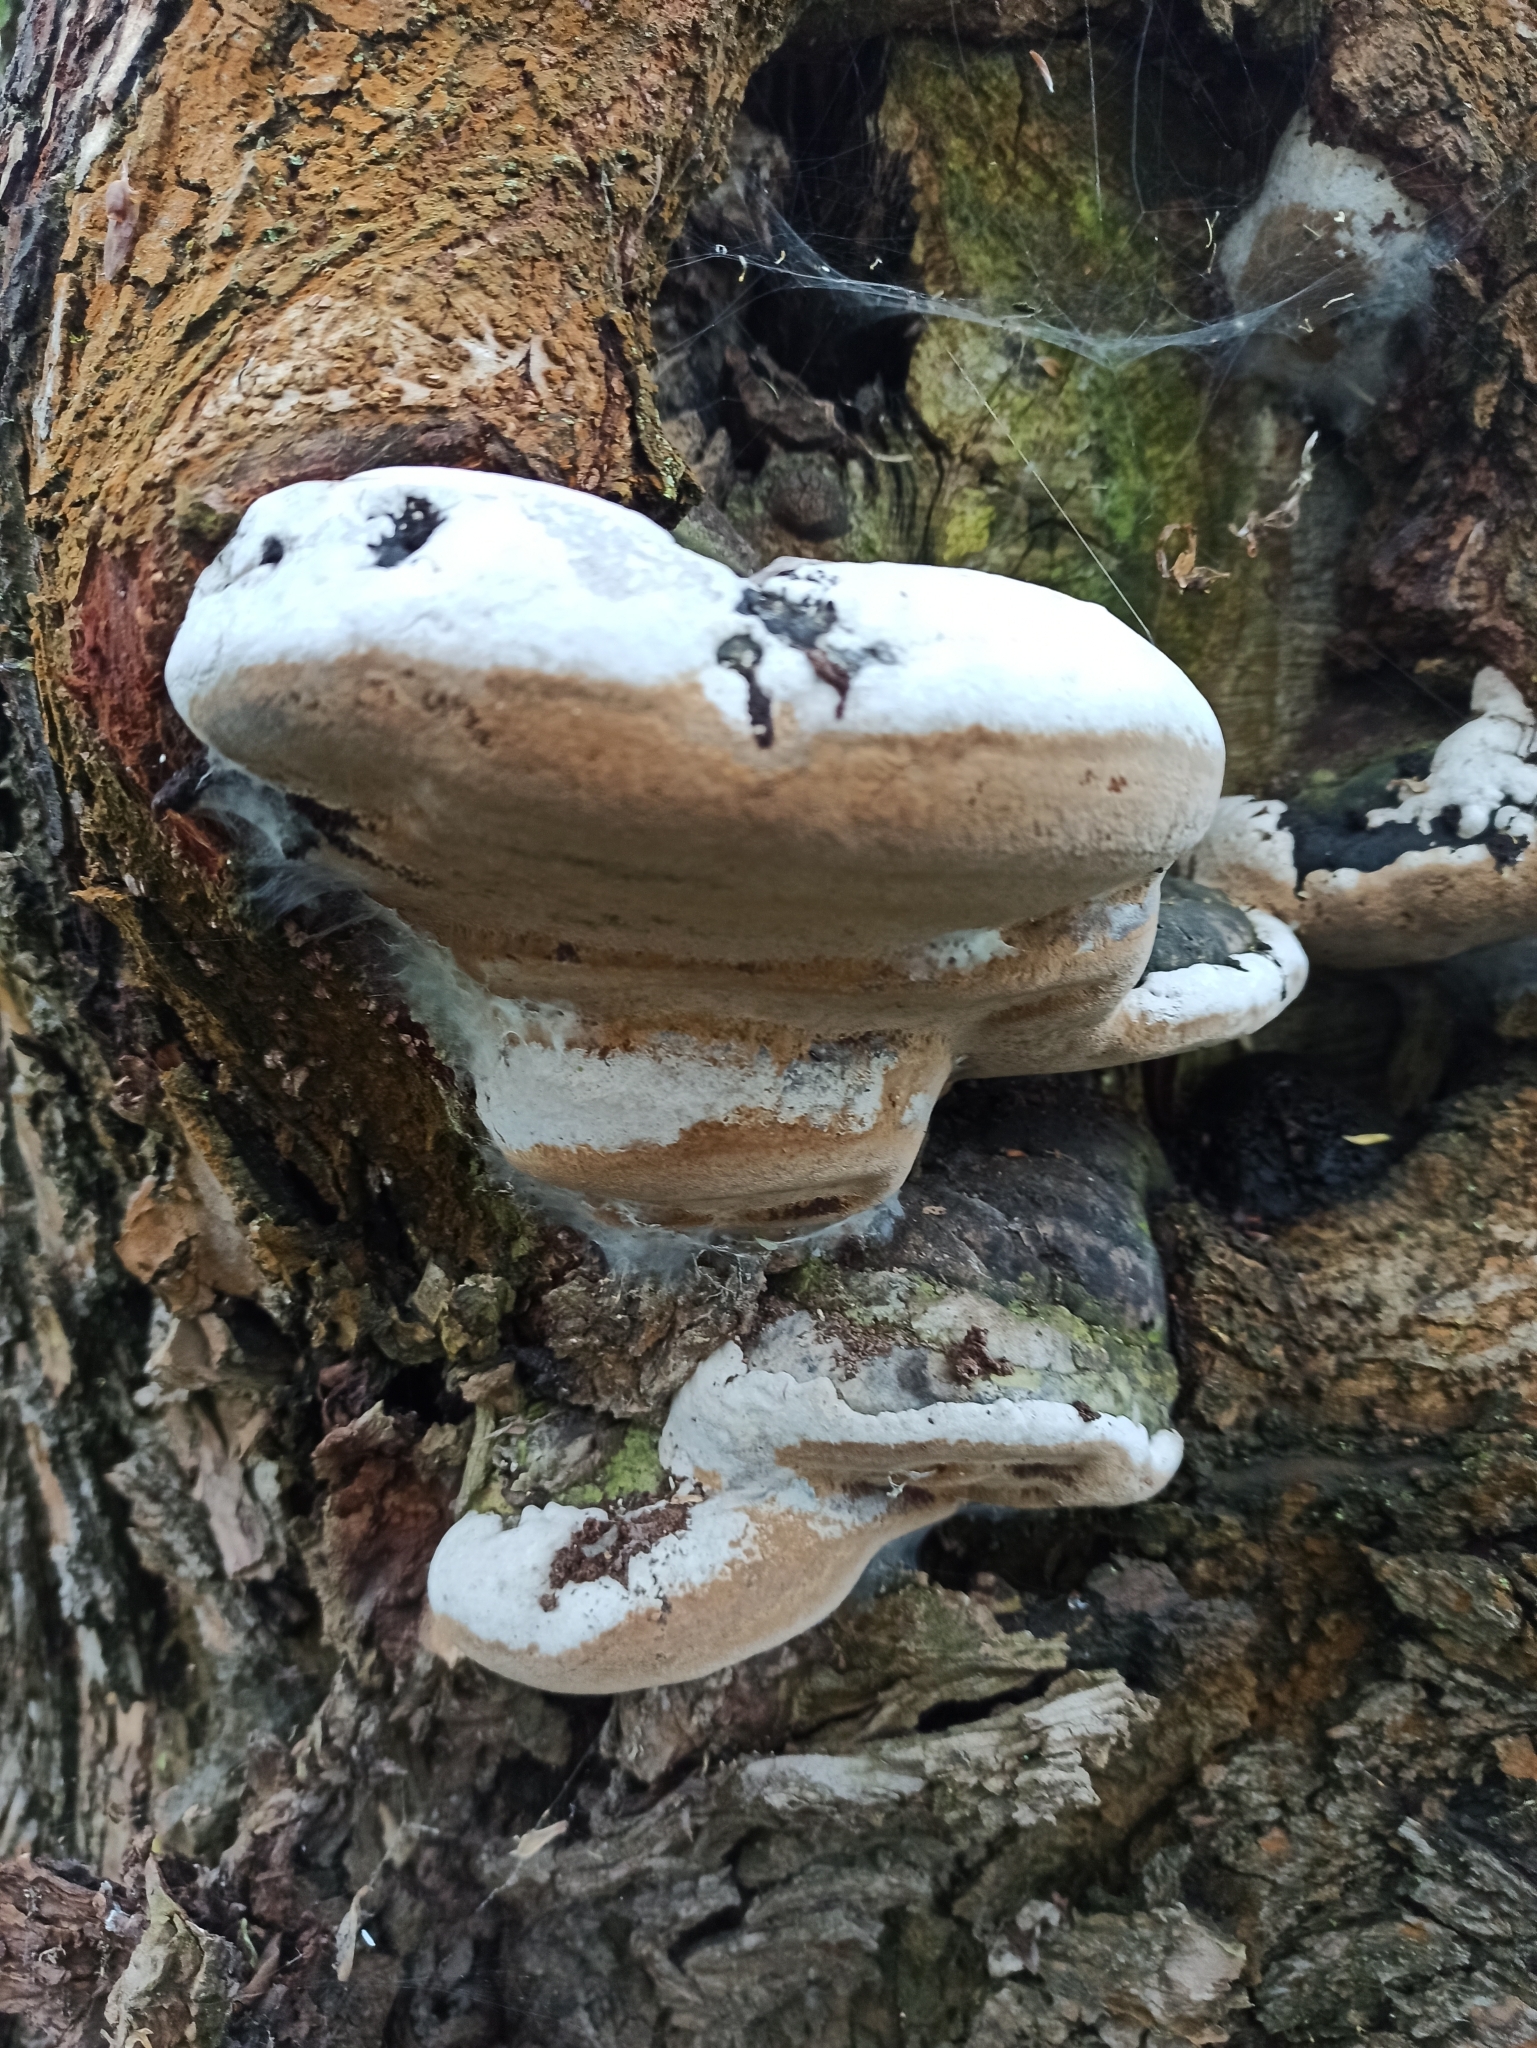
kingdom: Fungi
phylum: Basidiomycota
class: Agaricomycetes
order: Hymenochaetales
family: Hymenochaetaceae
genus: Phellinus
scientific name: Phellinus igniarius
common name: Willow bracket
